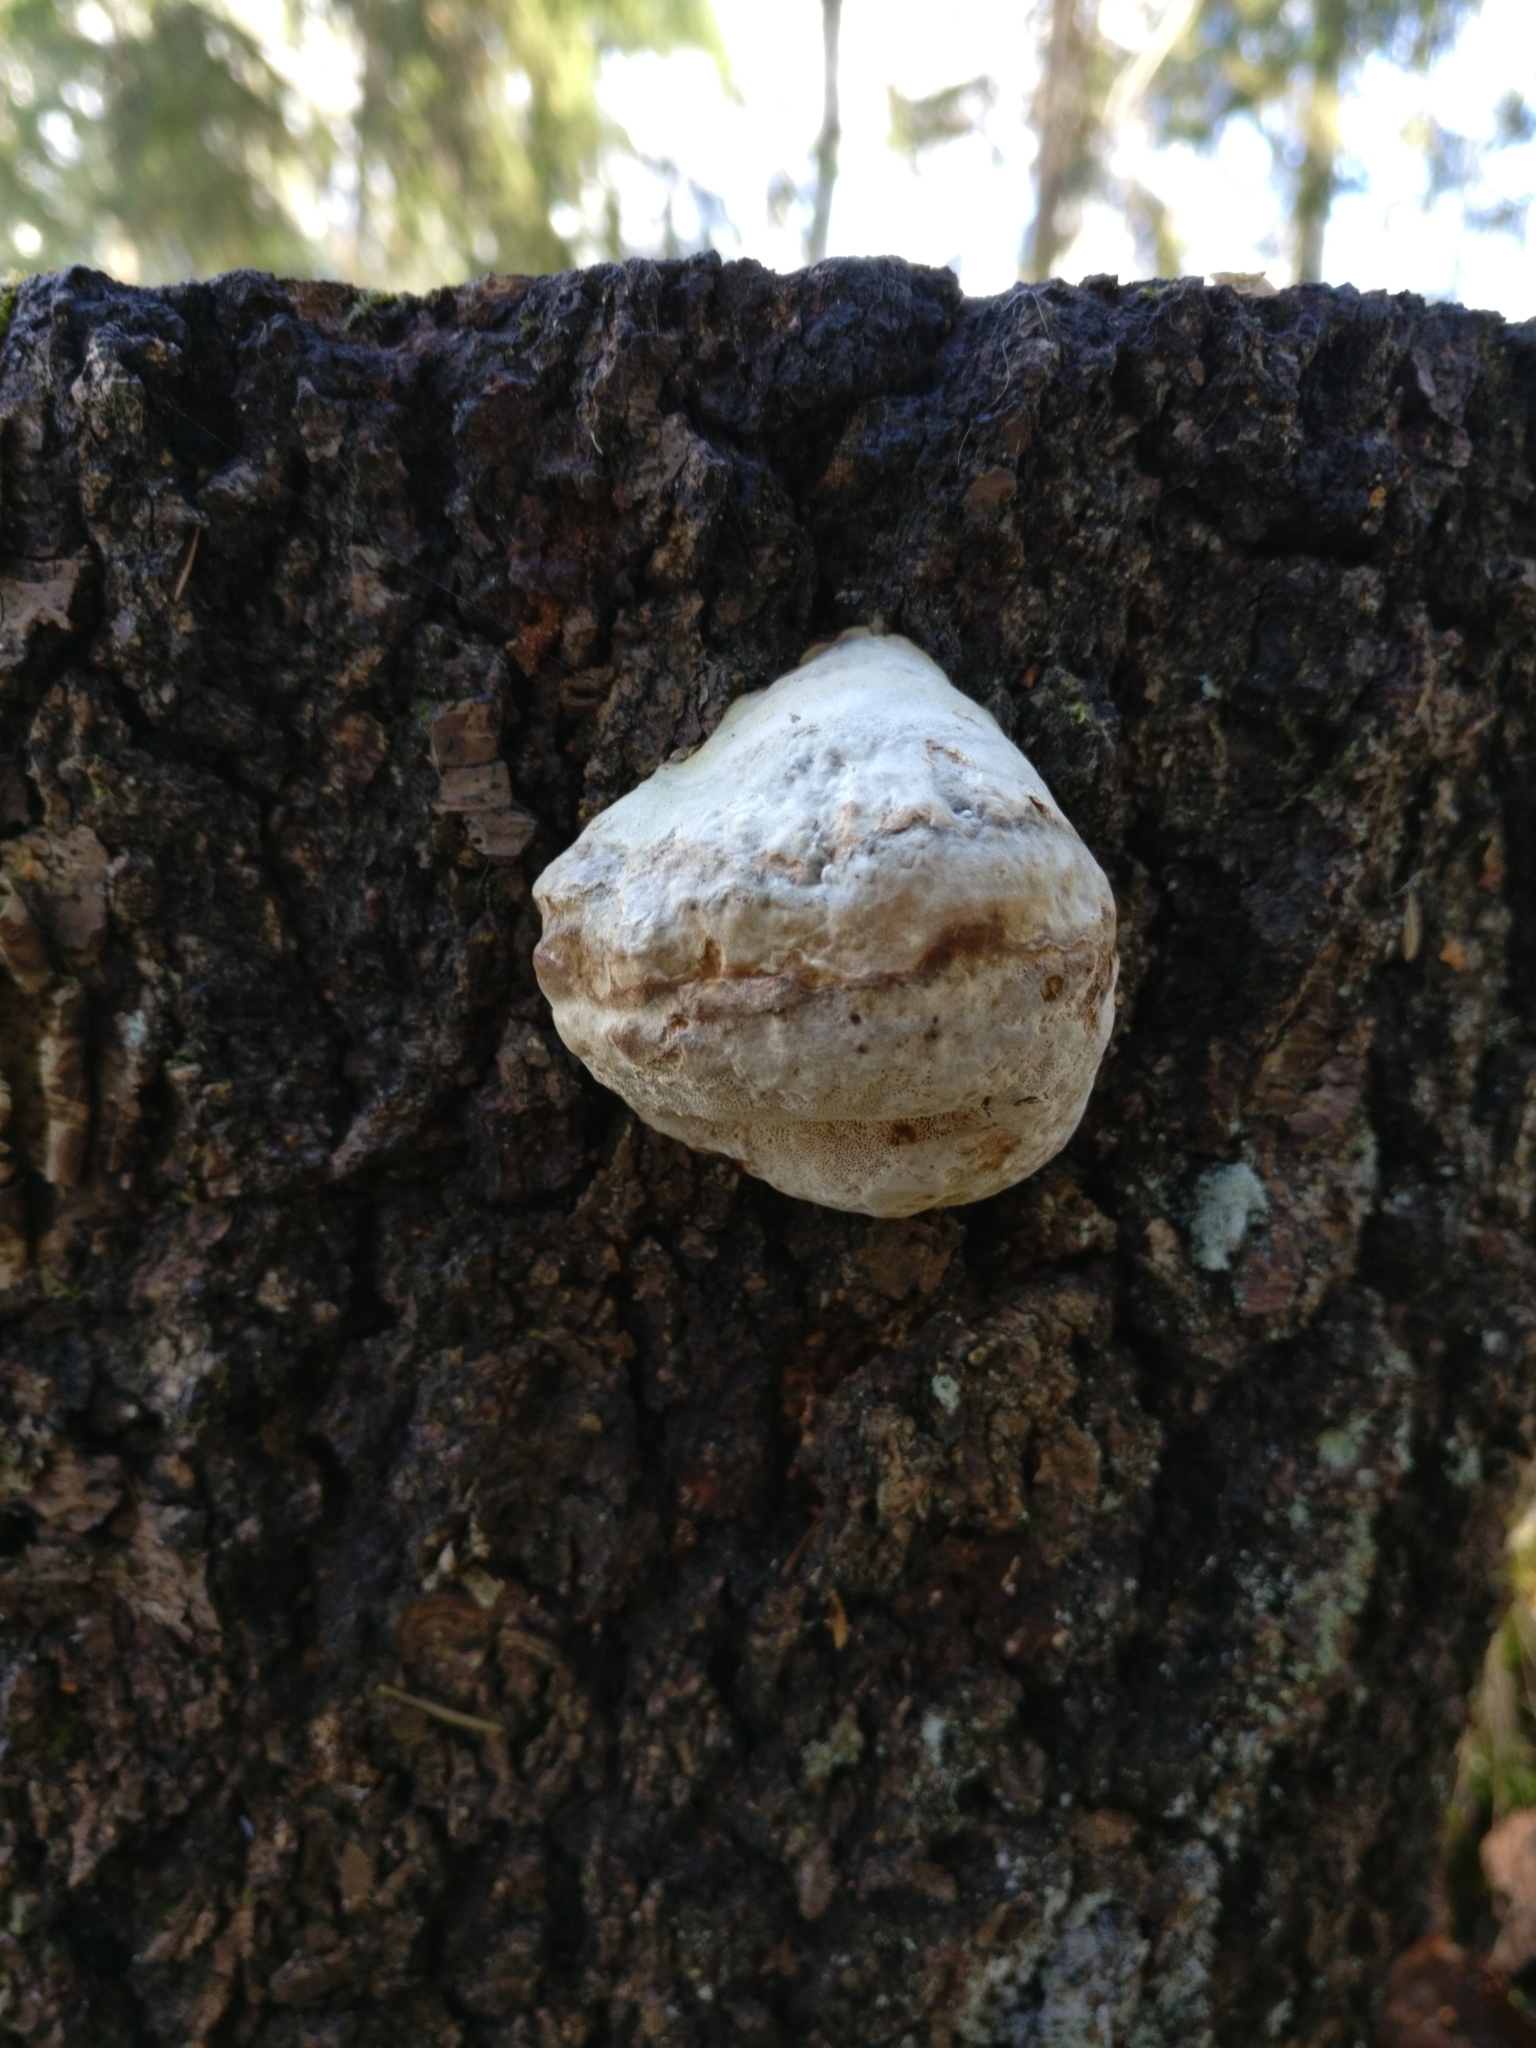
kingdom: Fungi
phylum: Basidiomycota
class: Agaricomycetes
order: Polyporales
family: Polyporaceae
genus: Fomes
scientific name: Fomes fomentarius
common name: Hoof fungus
